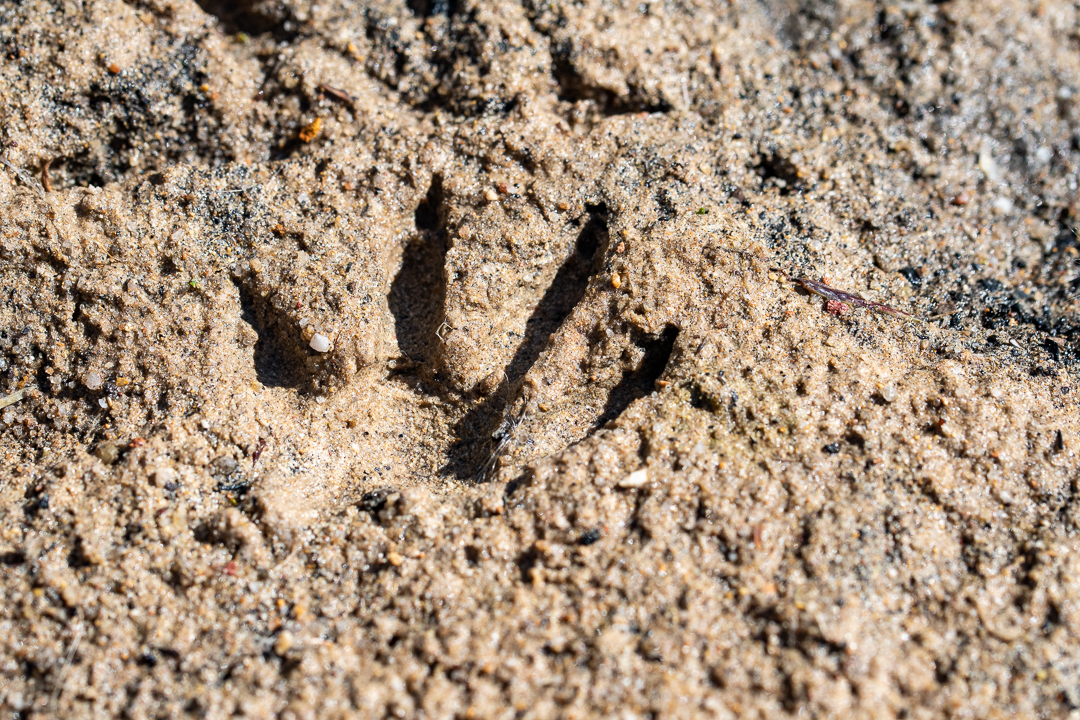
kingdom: Animalia
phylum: Chordata
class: Mammalia
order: Carnivora
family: Herpestidae
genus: Atilax
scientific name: Atilax paludinosus
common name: Marsh mongoose
